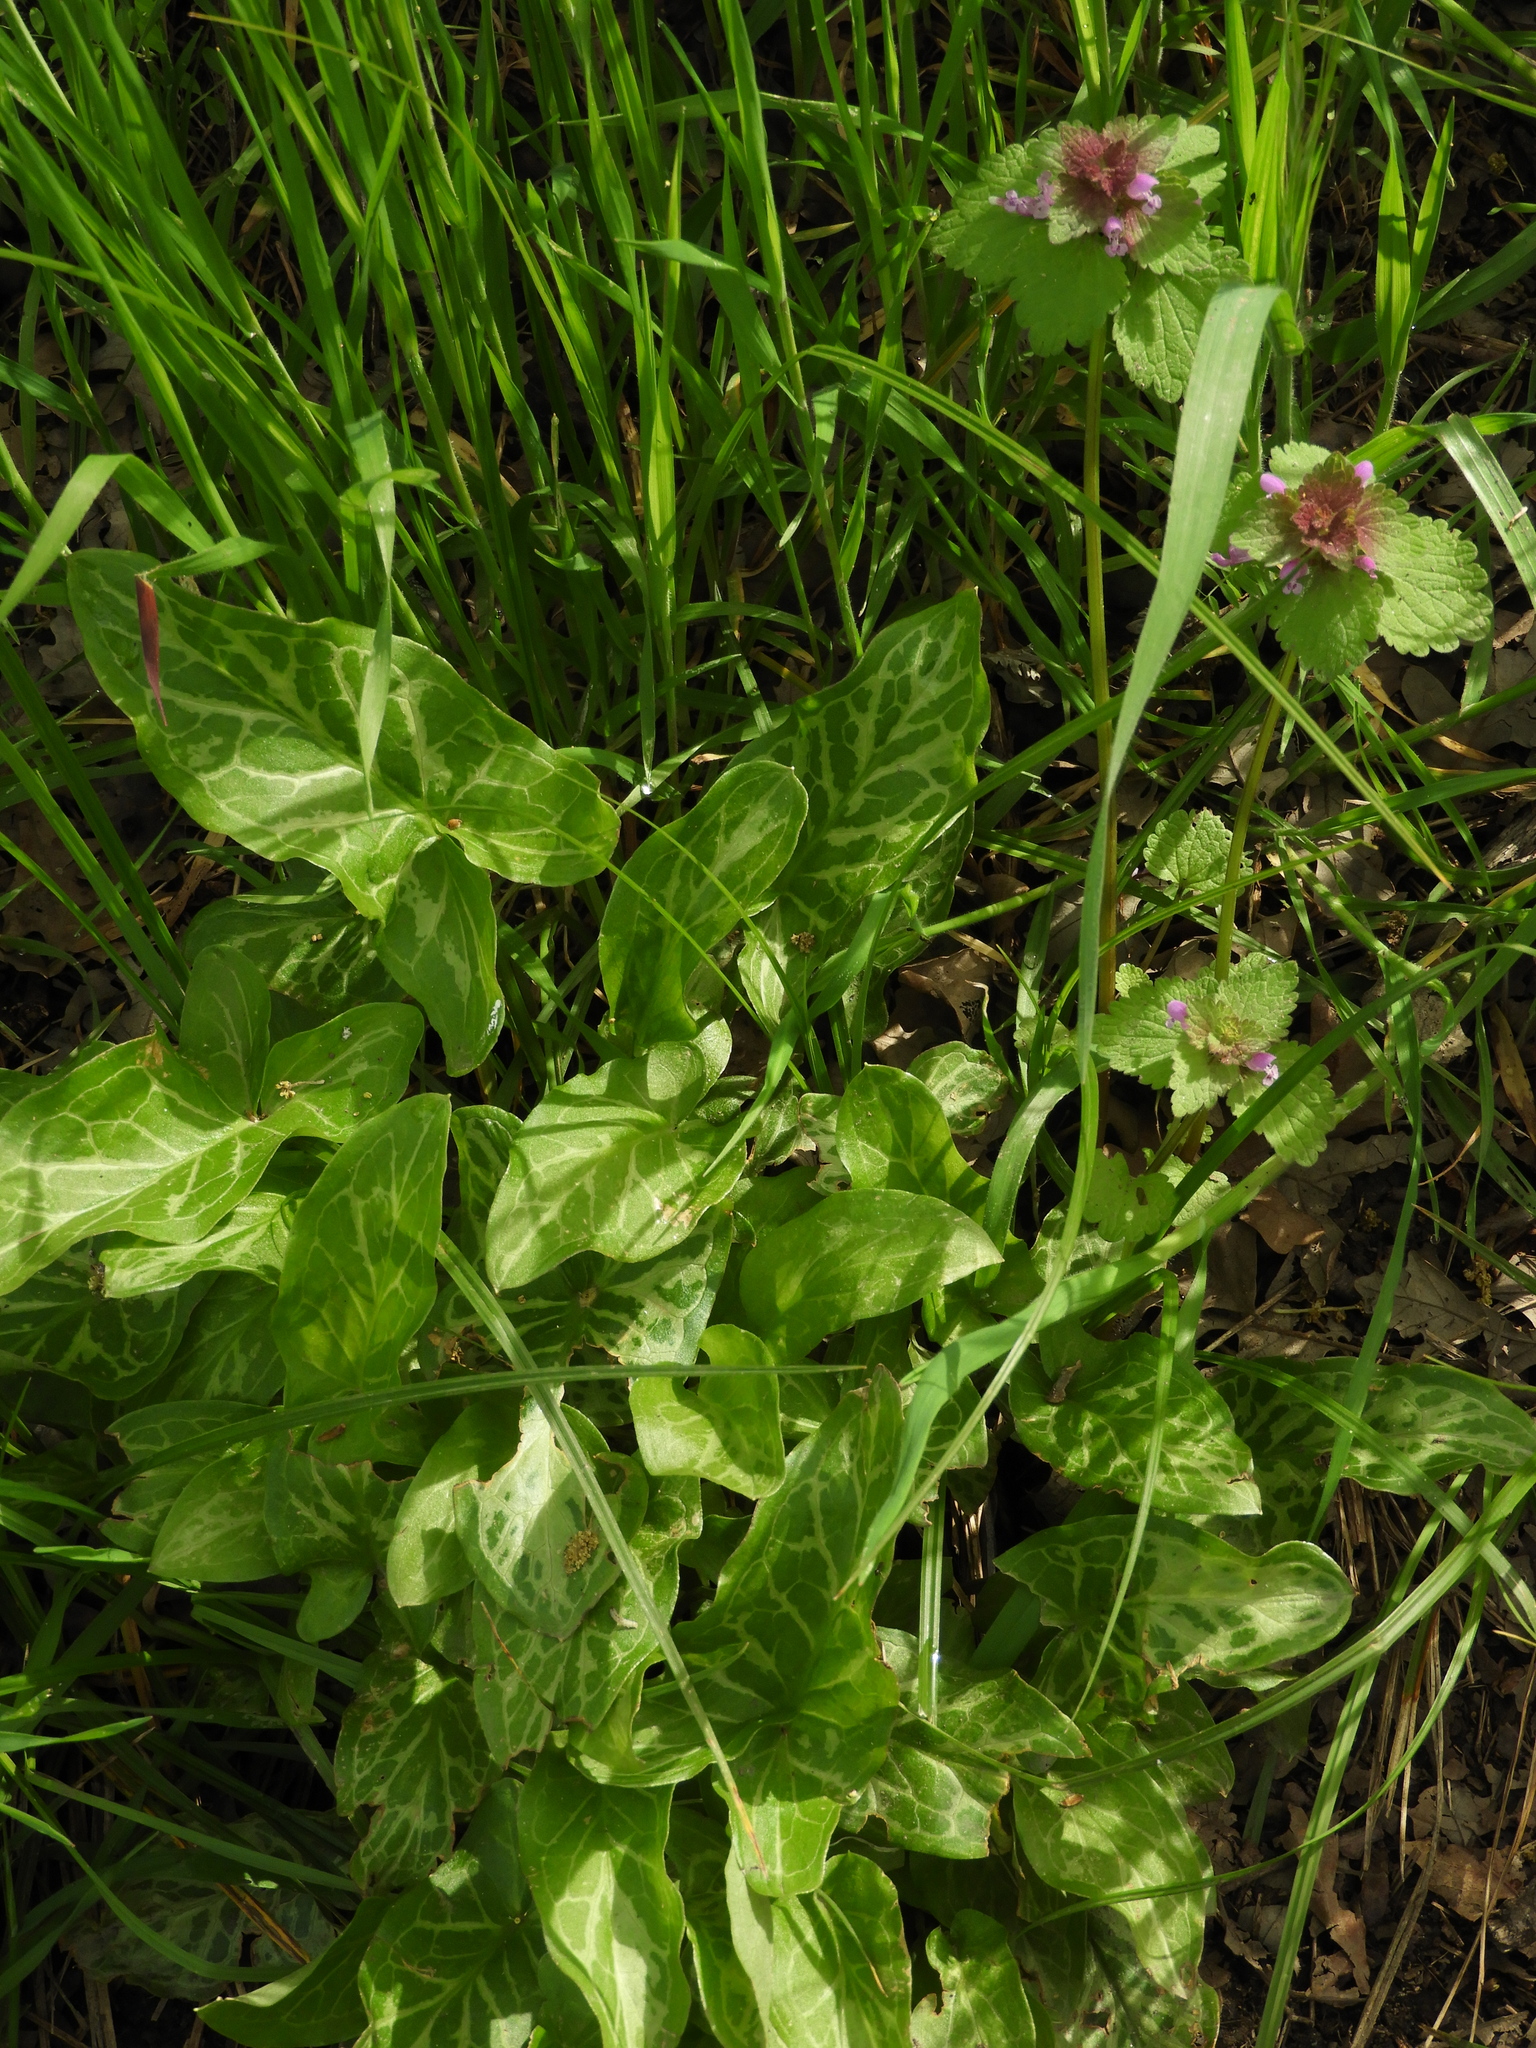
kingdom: Plantae
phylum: Tracheophyta
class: Liliopsida
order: Alismatales
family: Araceae
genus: Arum
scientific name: Arum italicum
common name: Italian lords-and-ladies
